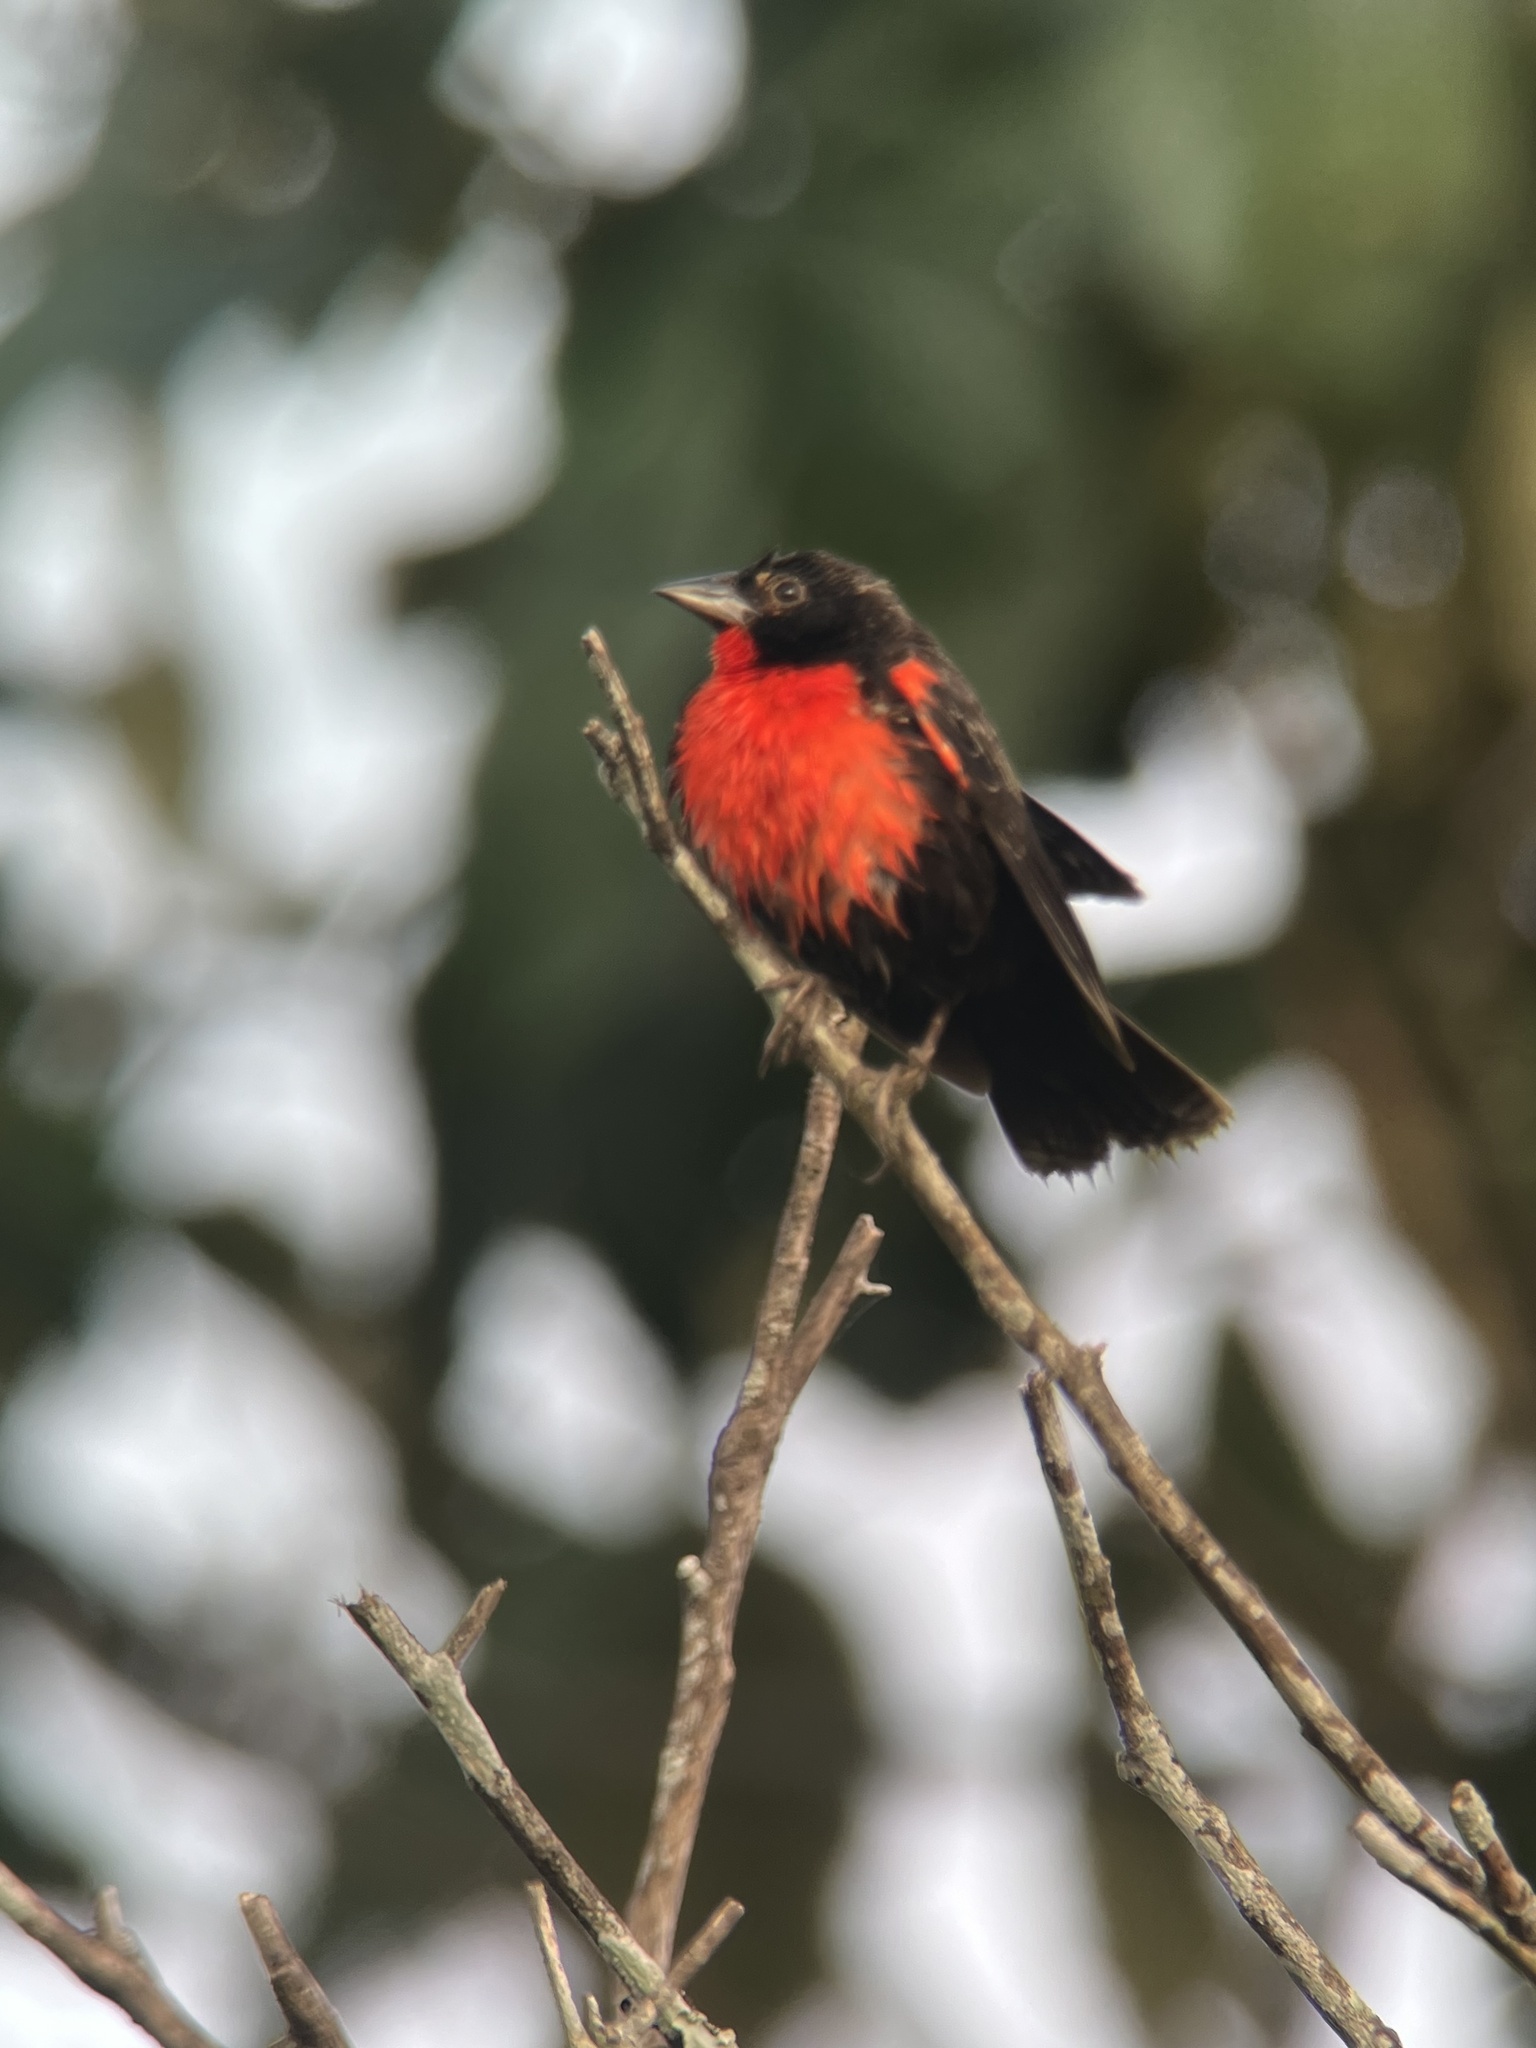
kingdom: Animalia
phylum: Chordata
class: Aves
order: Passeriformes
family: Icteridae
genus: Sturnella
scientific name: Sturnella militaris
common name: Red-breasted blackbird
